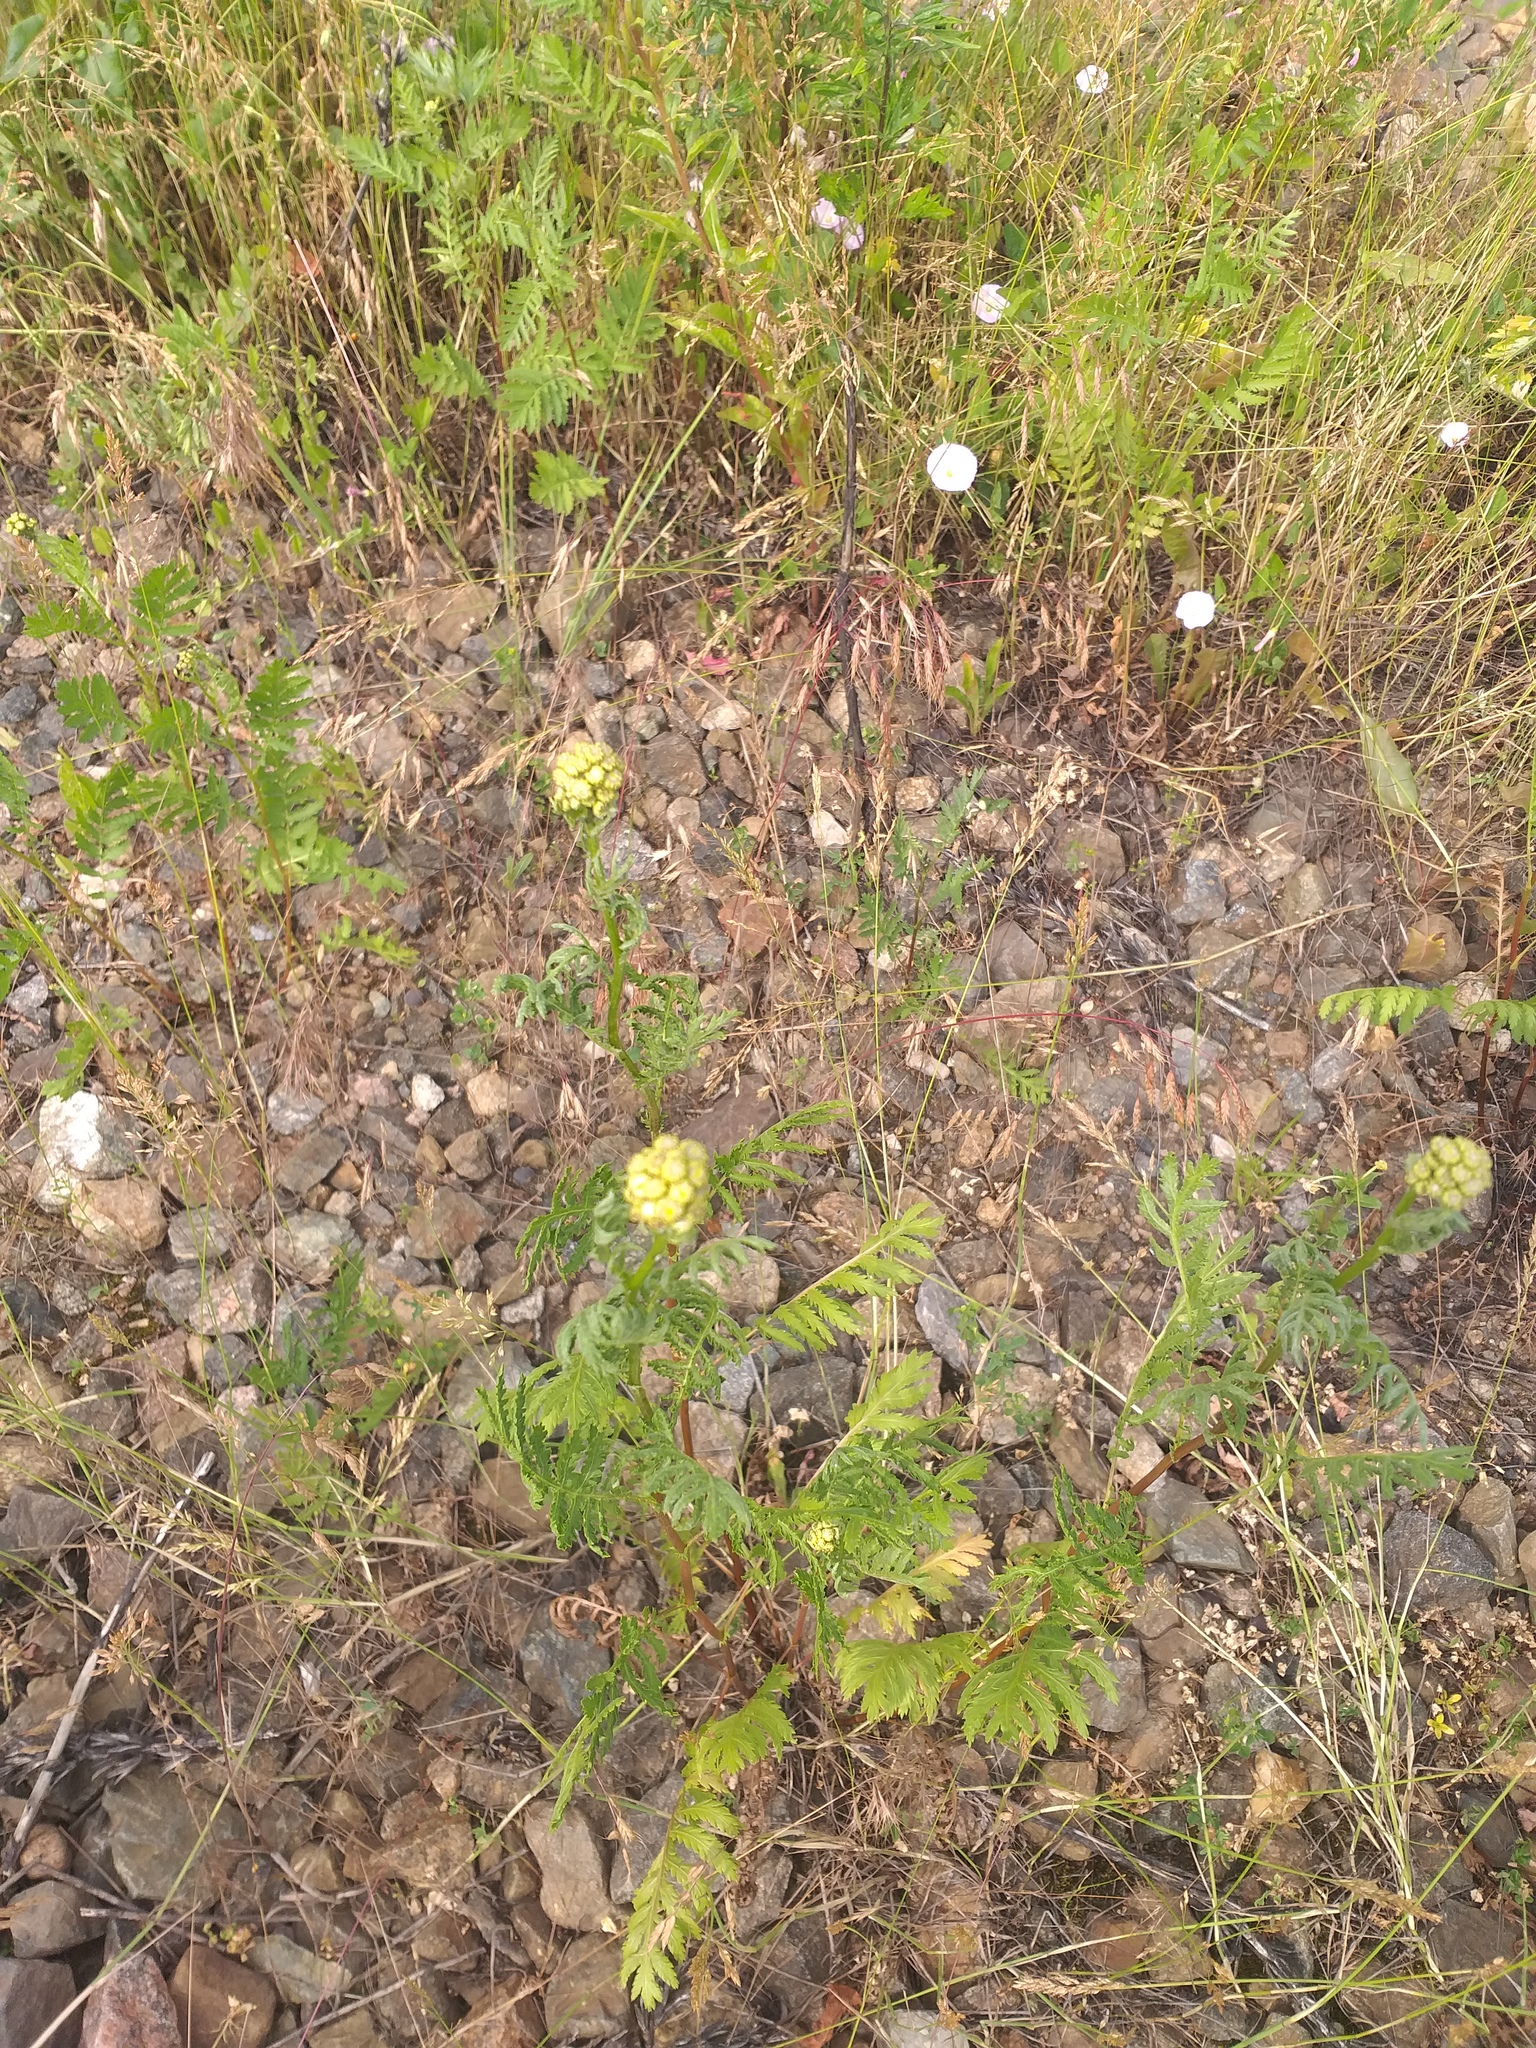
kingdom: Plantae
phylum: Tracheophyta
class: Magnoliopsida
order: Asterales
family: Asteraceae
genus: Tanacetum
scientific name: Tanacetum vulgare
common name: Common tansy
